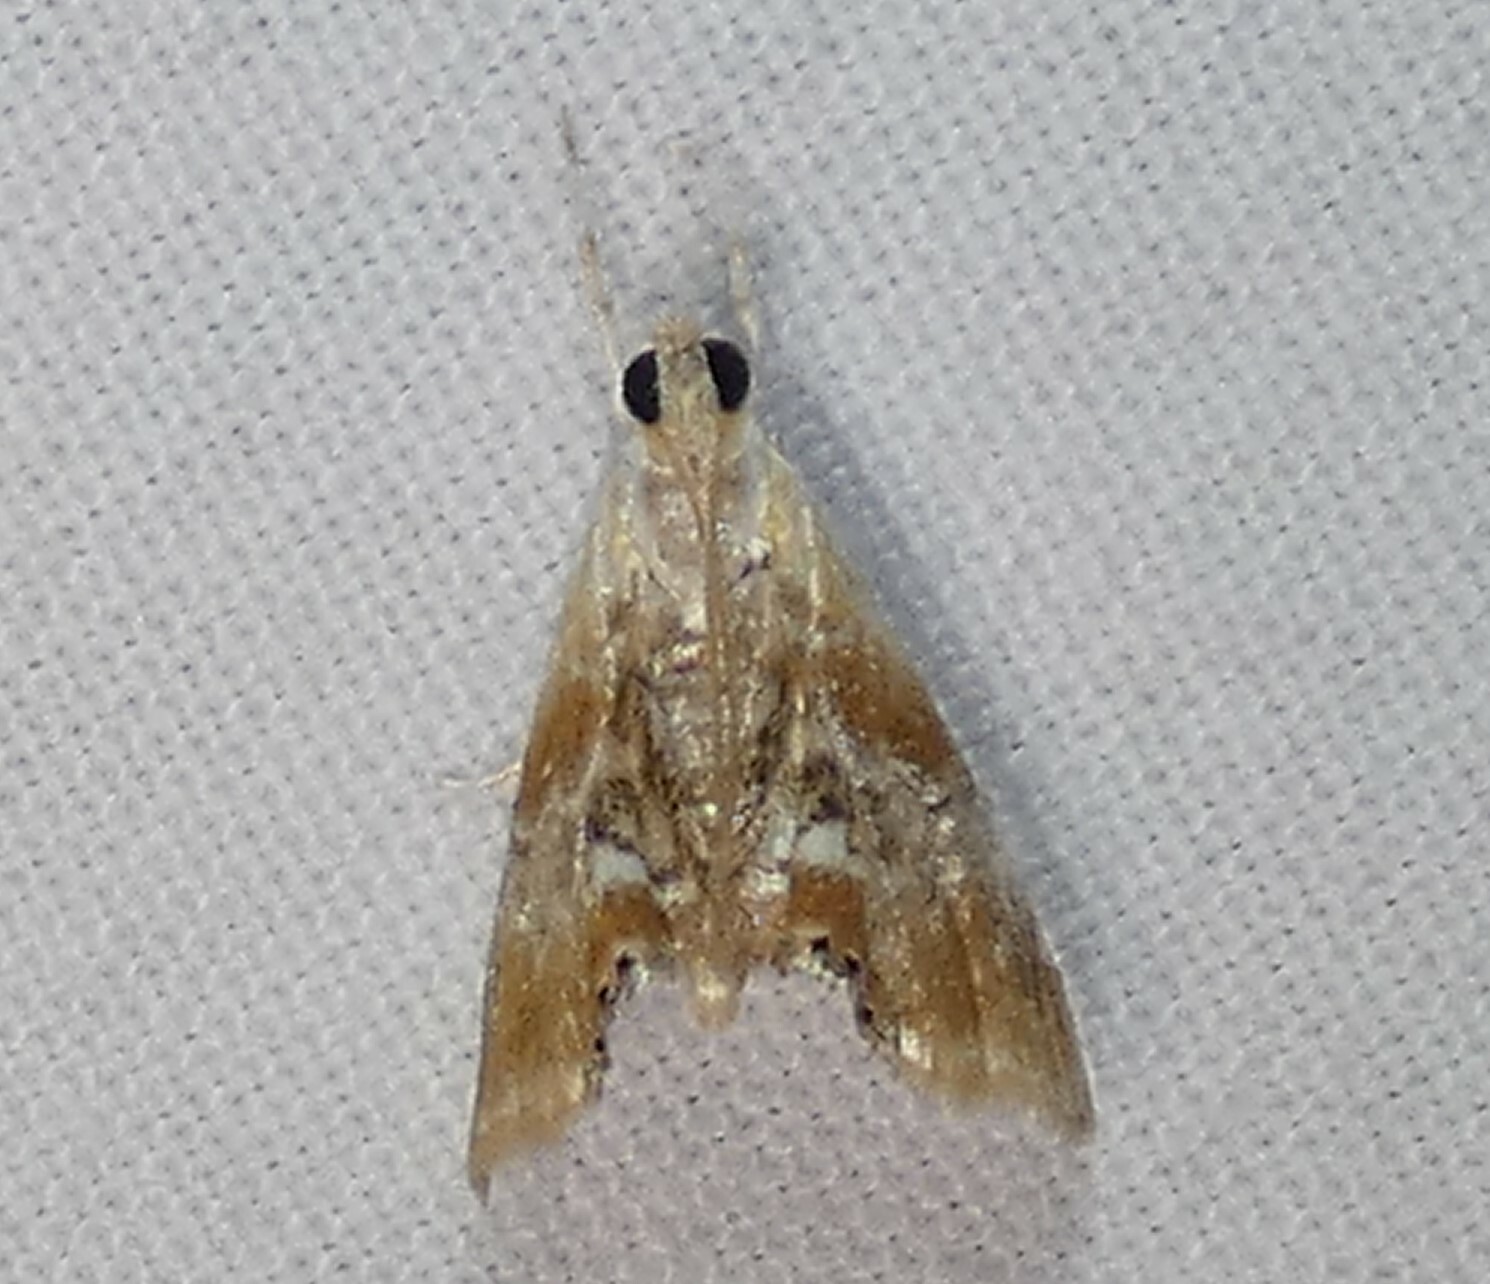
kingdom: Animalia
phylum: Arthropoda
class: Insecta
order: Lepidoptera
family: Crambidae
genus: Dicymolomia
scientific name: Dicymolomia julianalis
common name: Julia's dicymolomia moth
